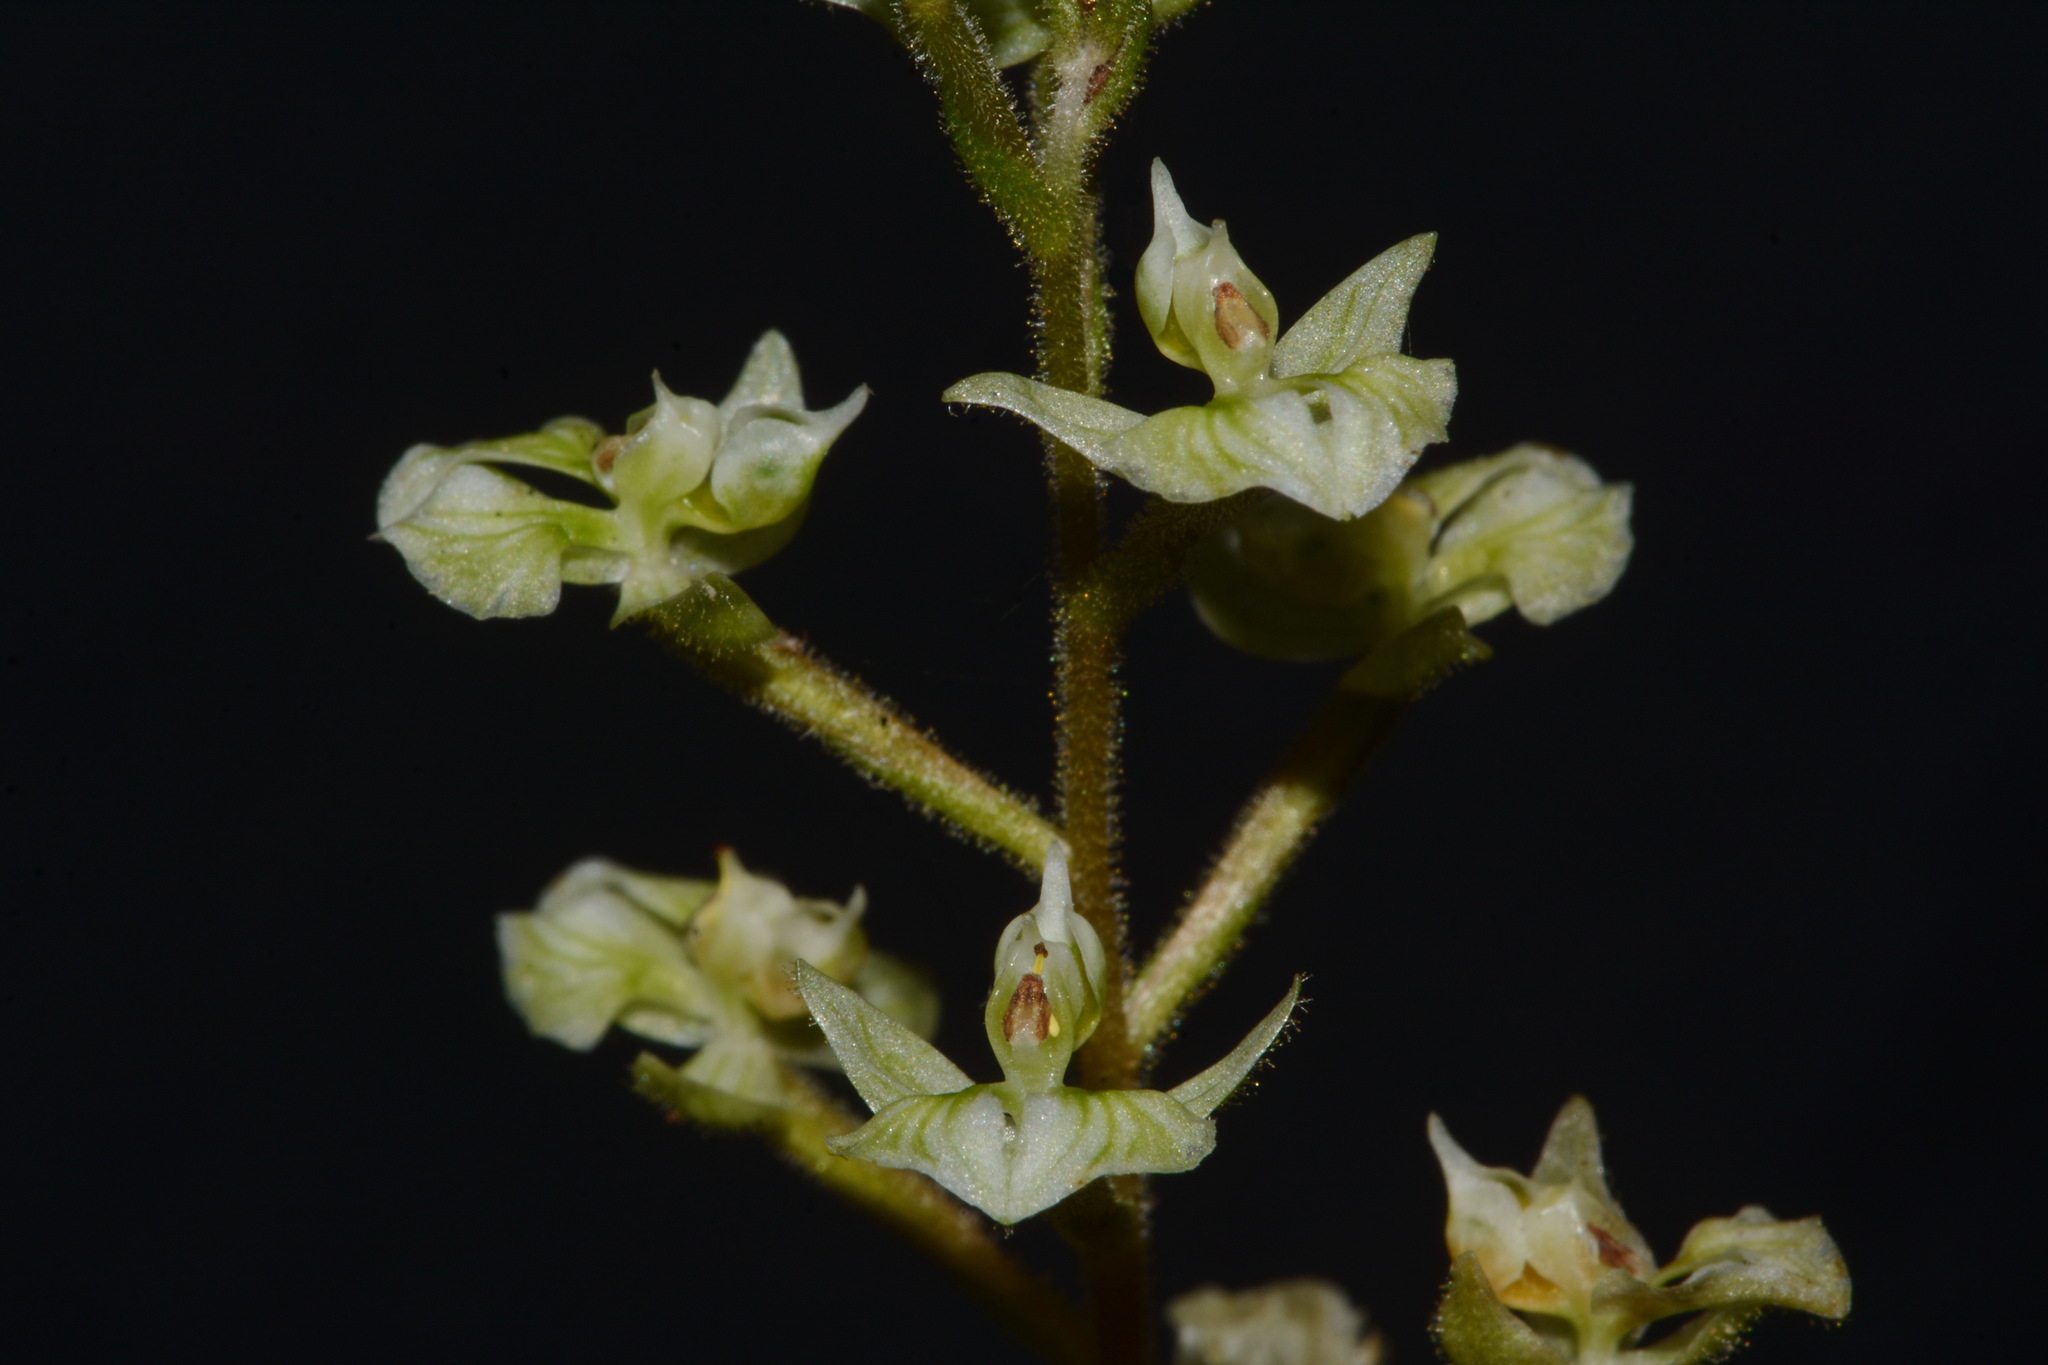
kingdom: Plantae
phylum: Tracheophyta
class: Liliopsida
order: Asparagales
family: Orchidaceae
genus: Ponthieva
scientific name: Ponthieva racemosa
